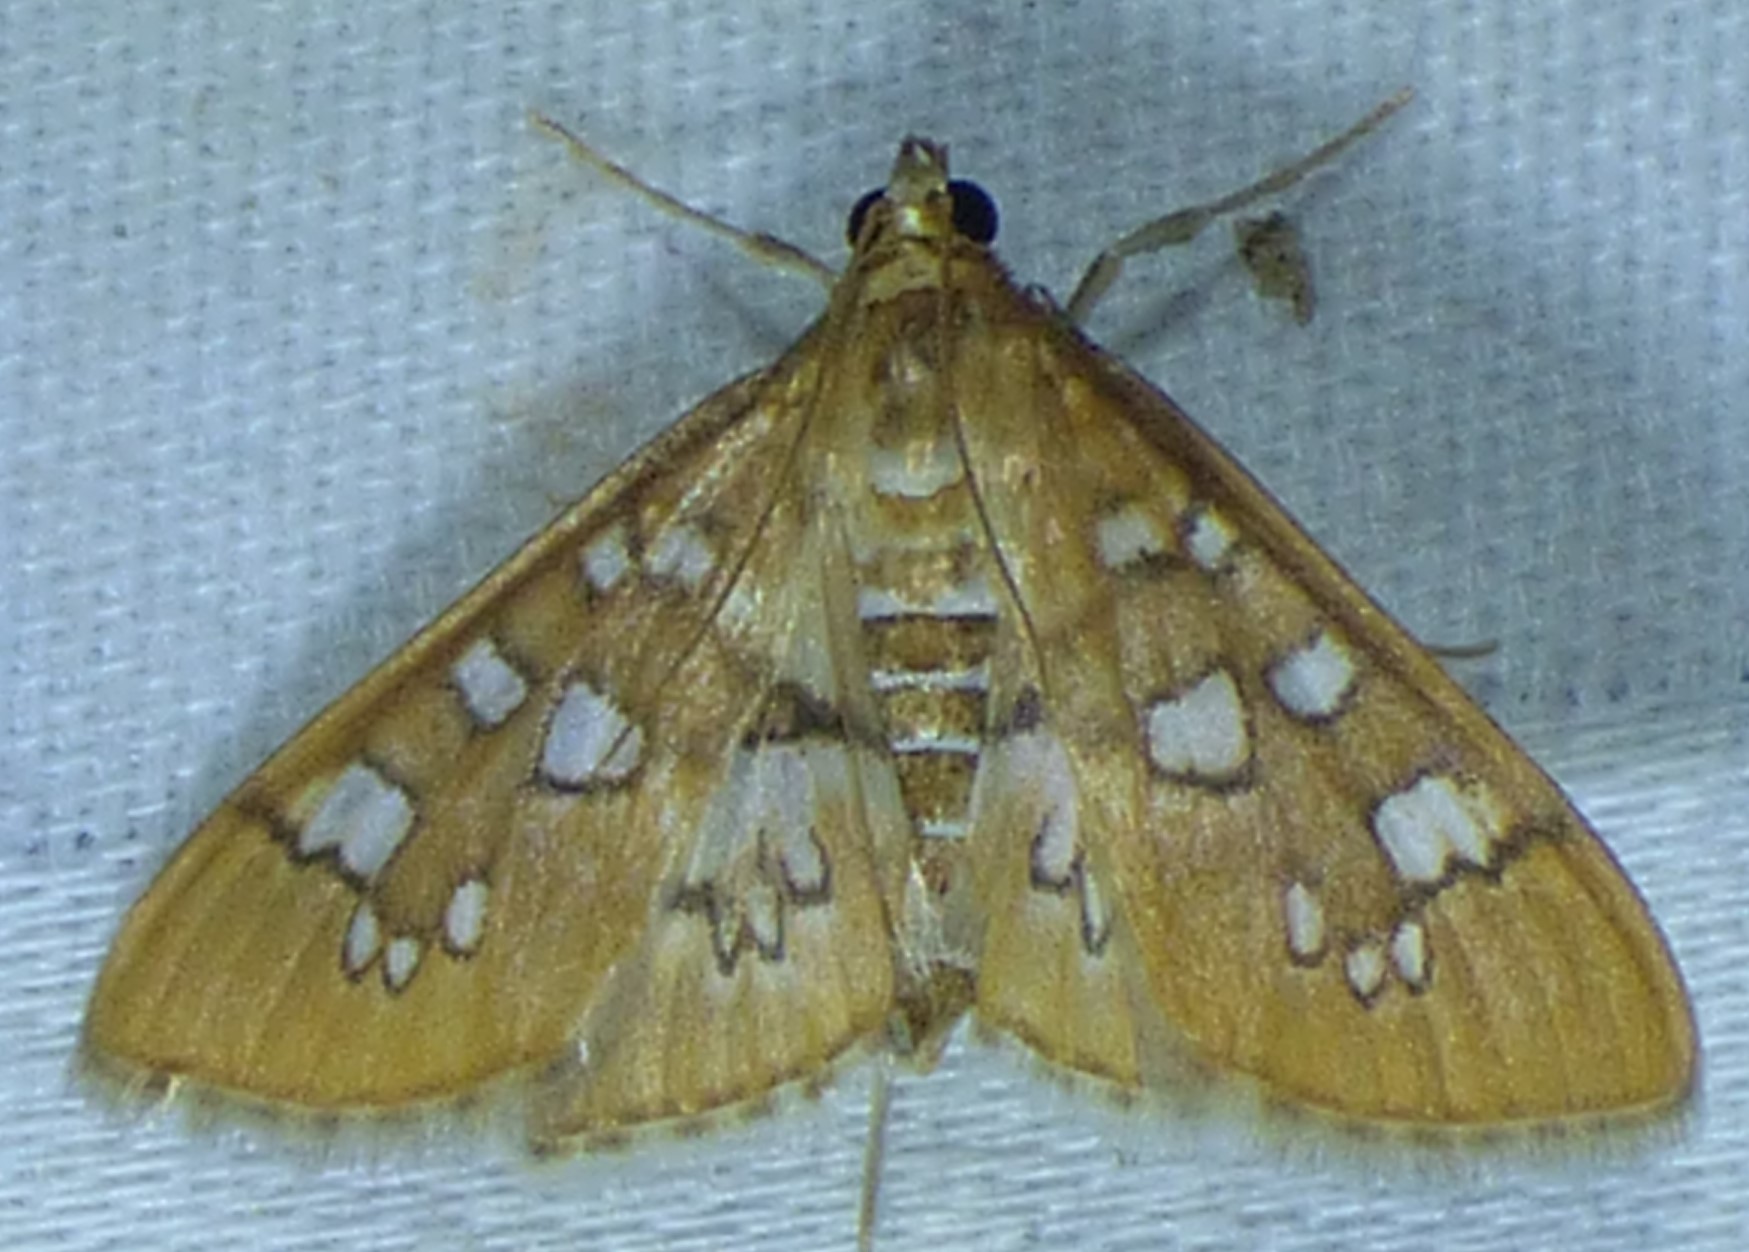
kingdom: Animalia
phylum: Arthropoda
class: Insecta
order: Lepidoptera
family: Crambidae
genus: Samea
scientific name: Samea baccatalis
